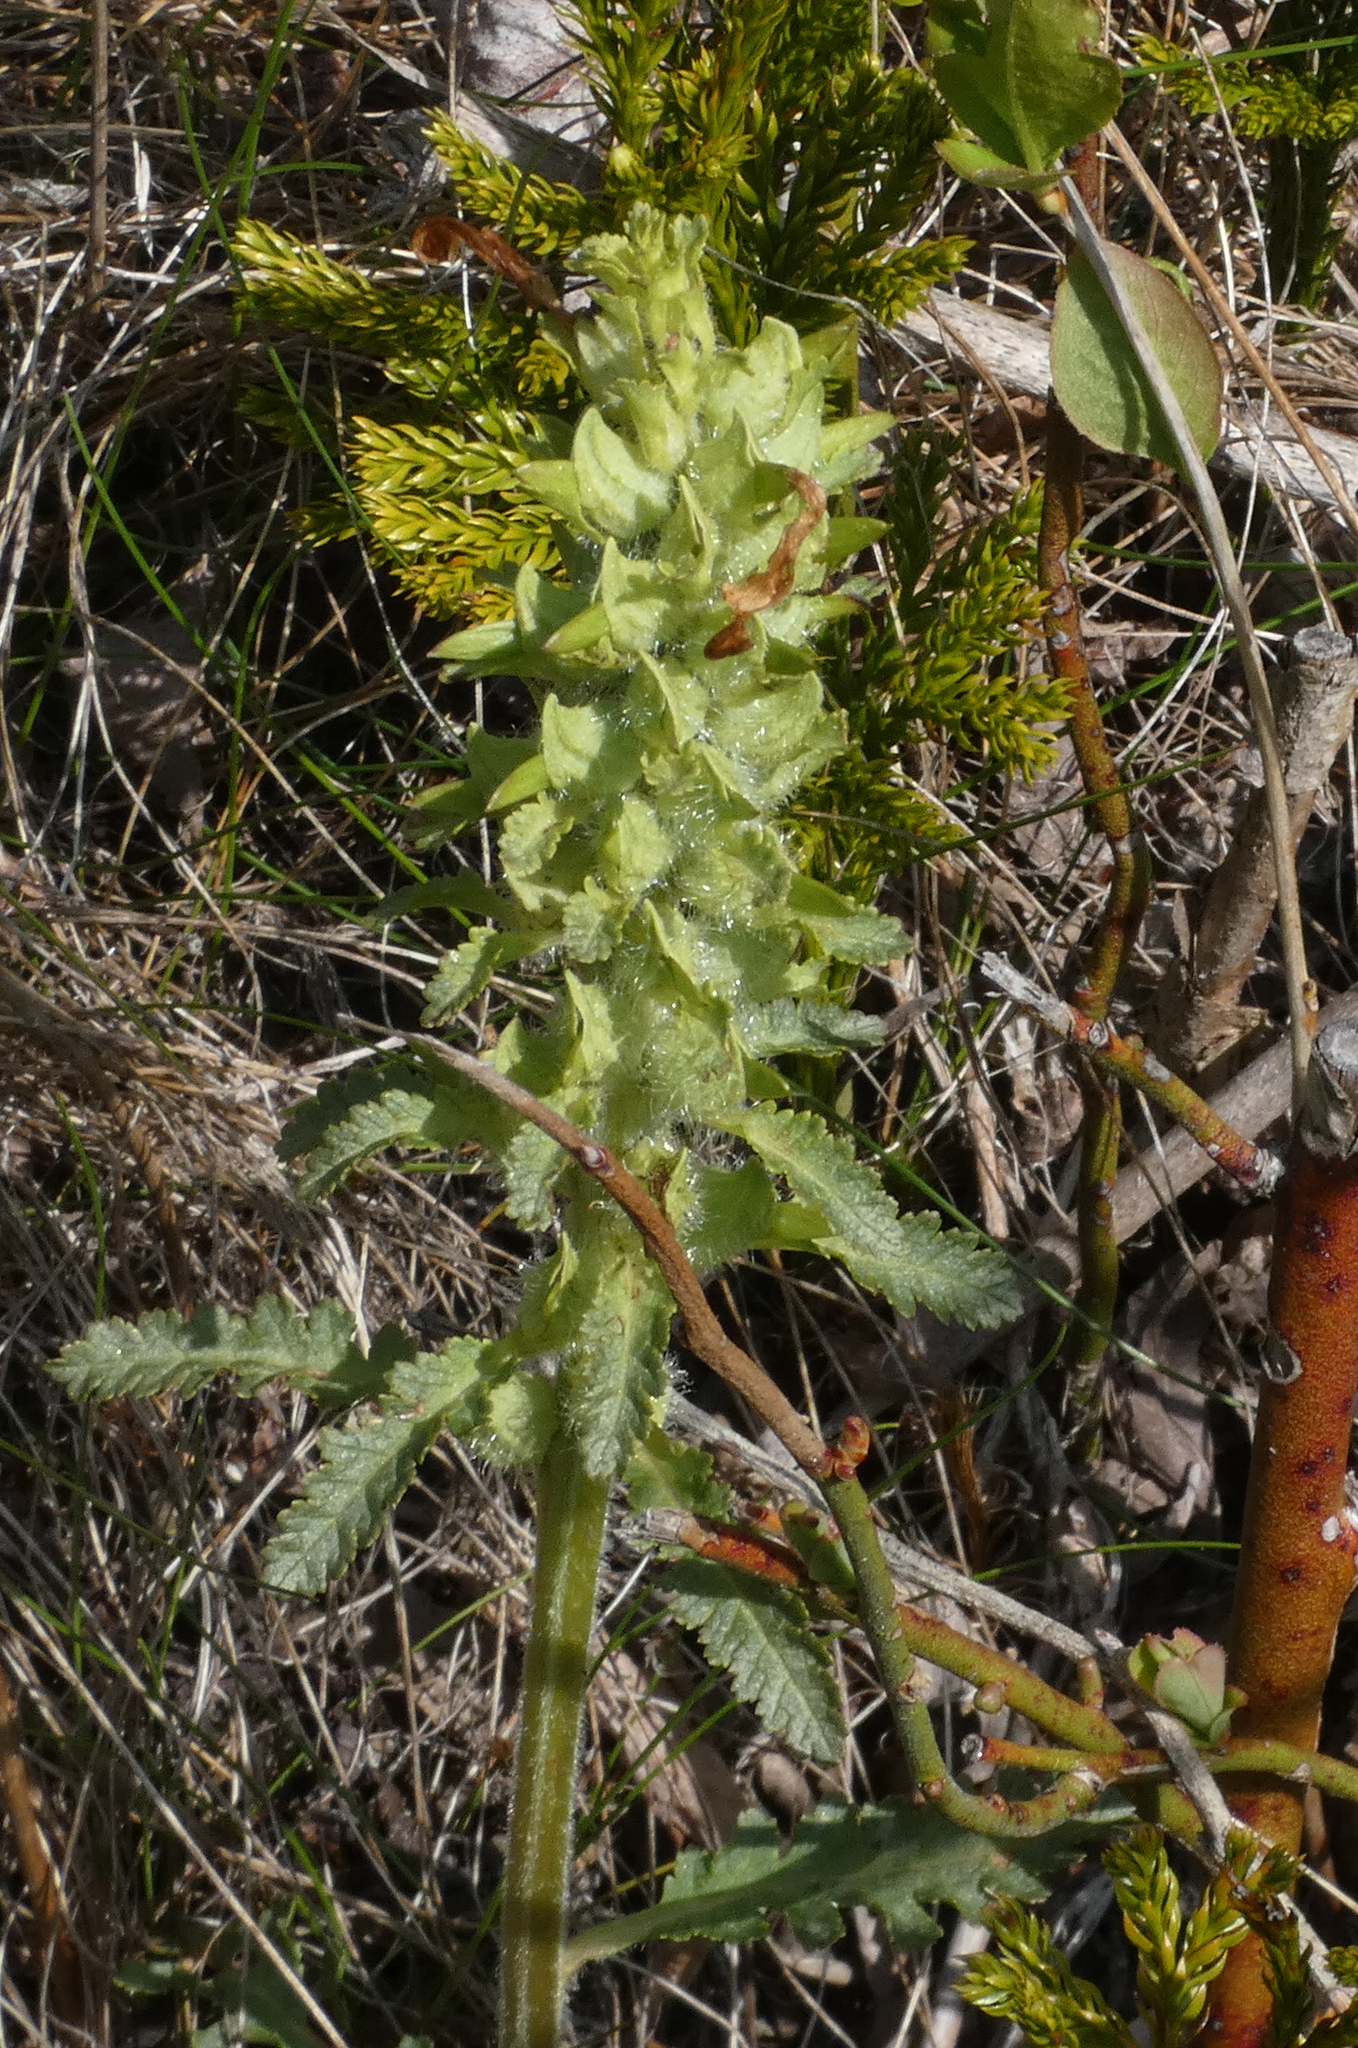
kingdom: Plantae
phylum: Tracheophyta
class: Magnoliopsida
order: Lamiales
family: Orobanchaceae
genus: Pedicularis
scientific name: Pedicularis canadensis
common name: Early lousewort
